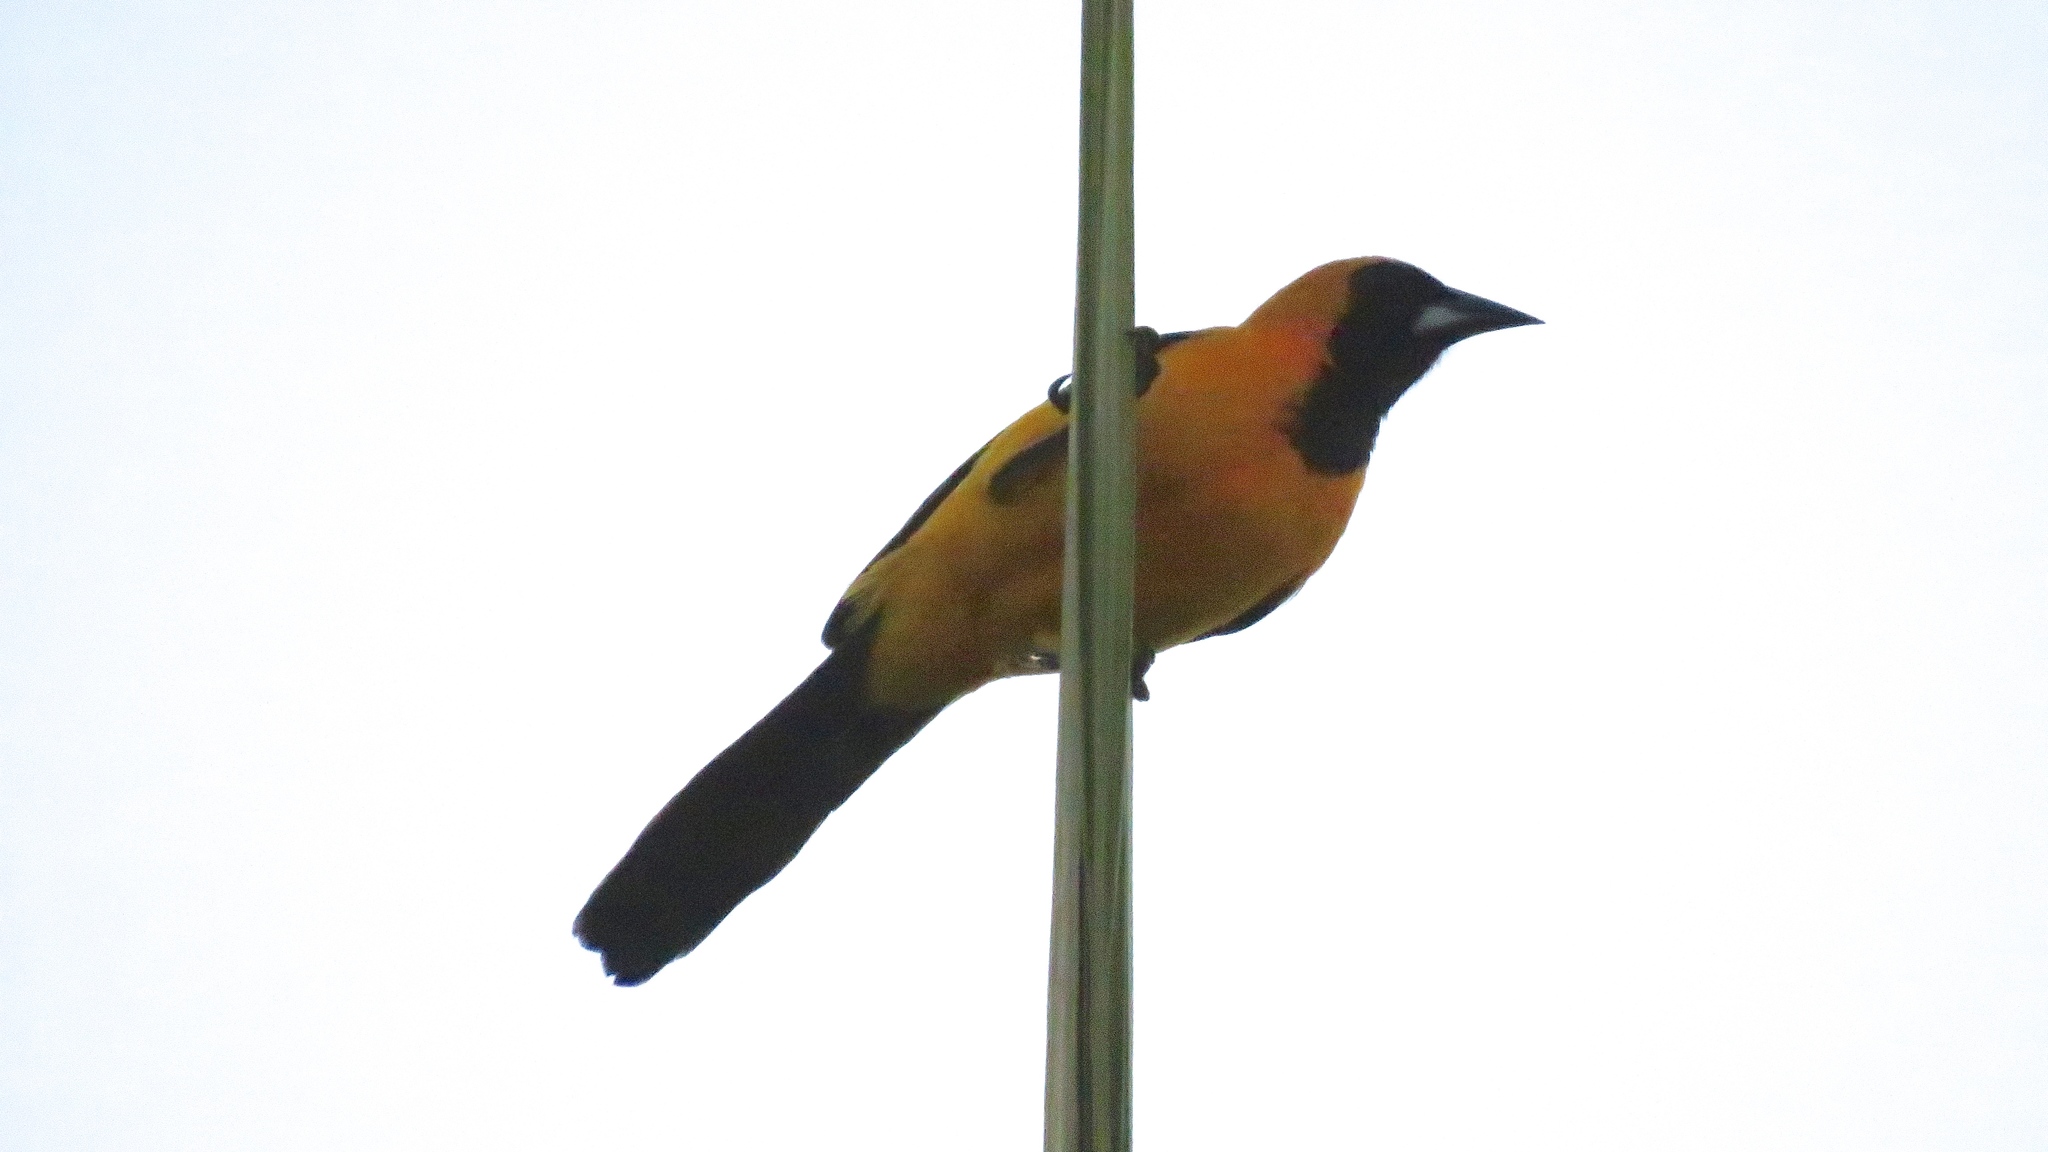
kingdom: Animalia
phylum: Chordata
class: Aves
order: Passeriformes
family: Icteridae
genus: Icterus
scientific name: Icterus cucullatus
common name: Hooded oriole
